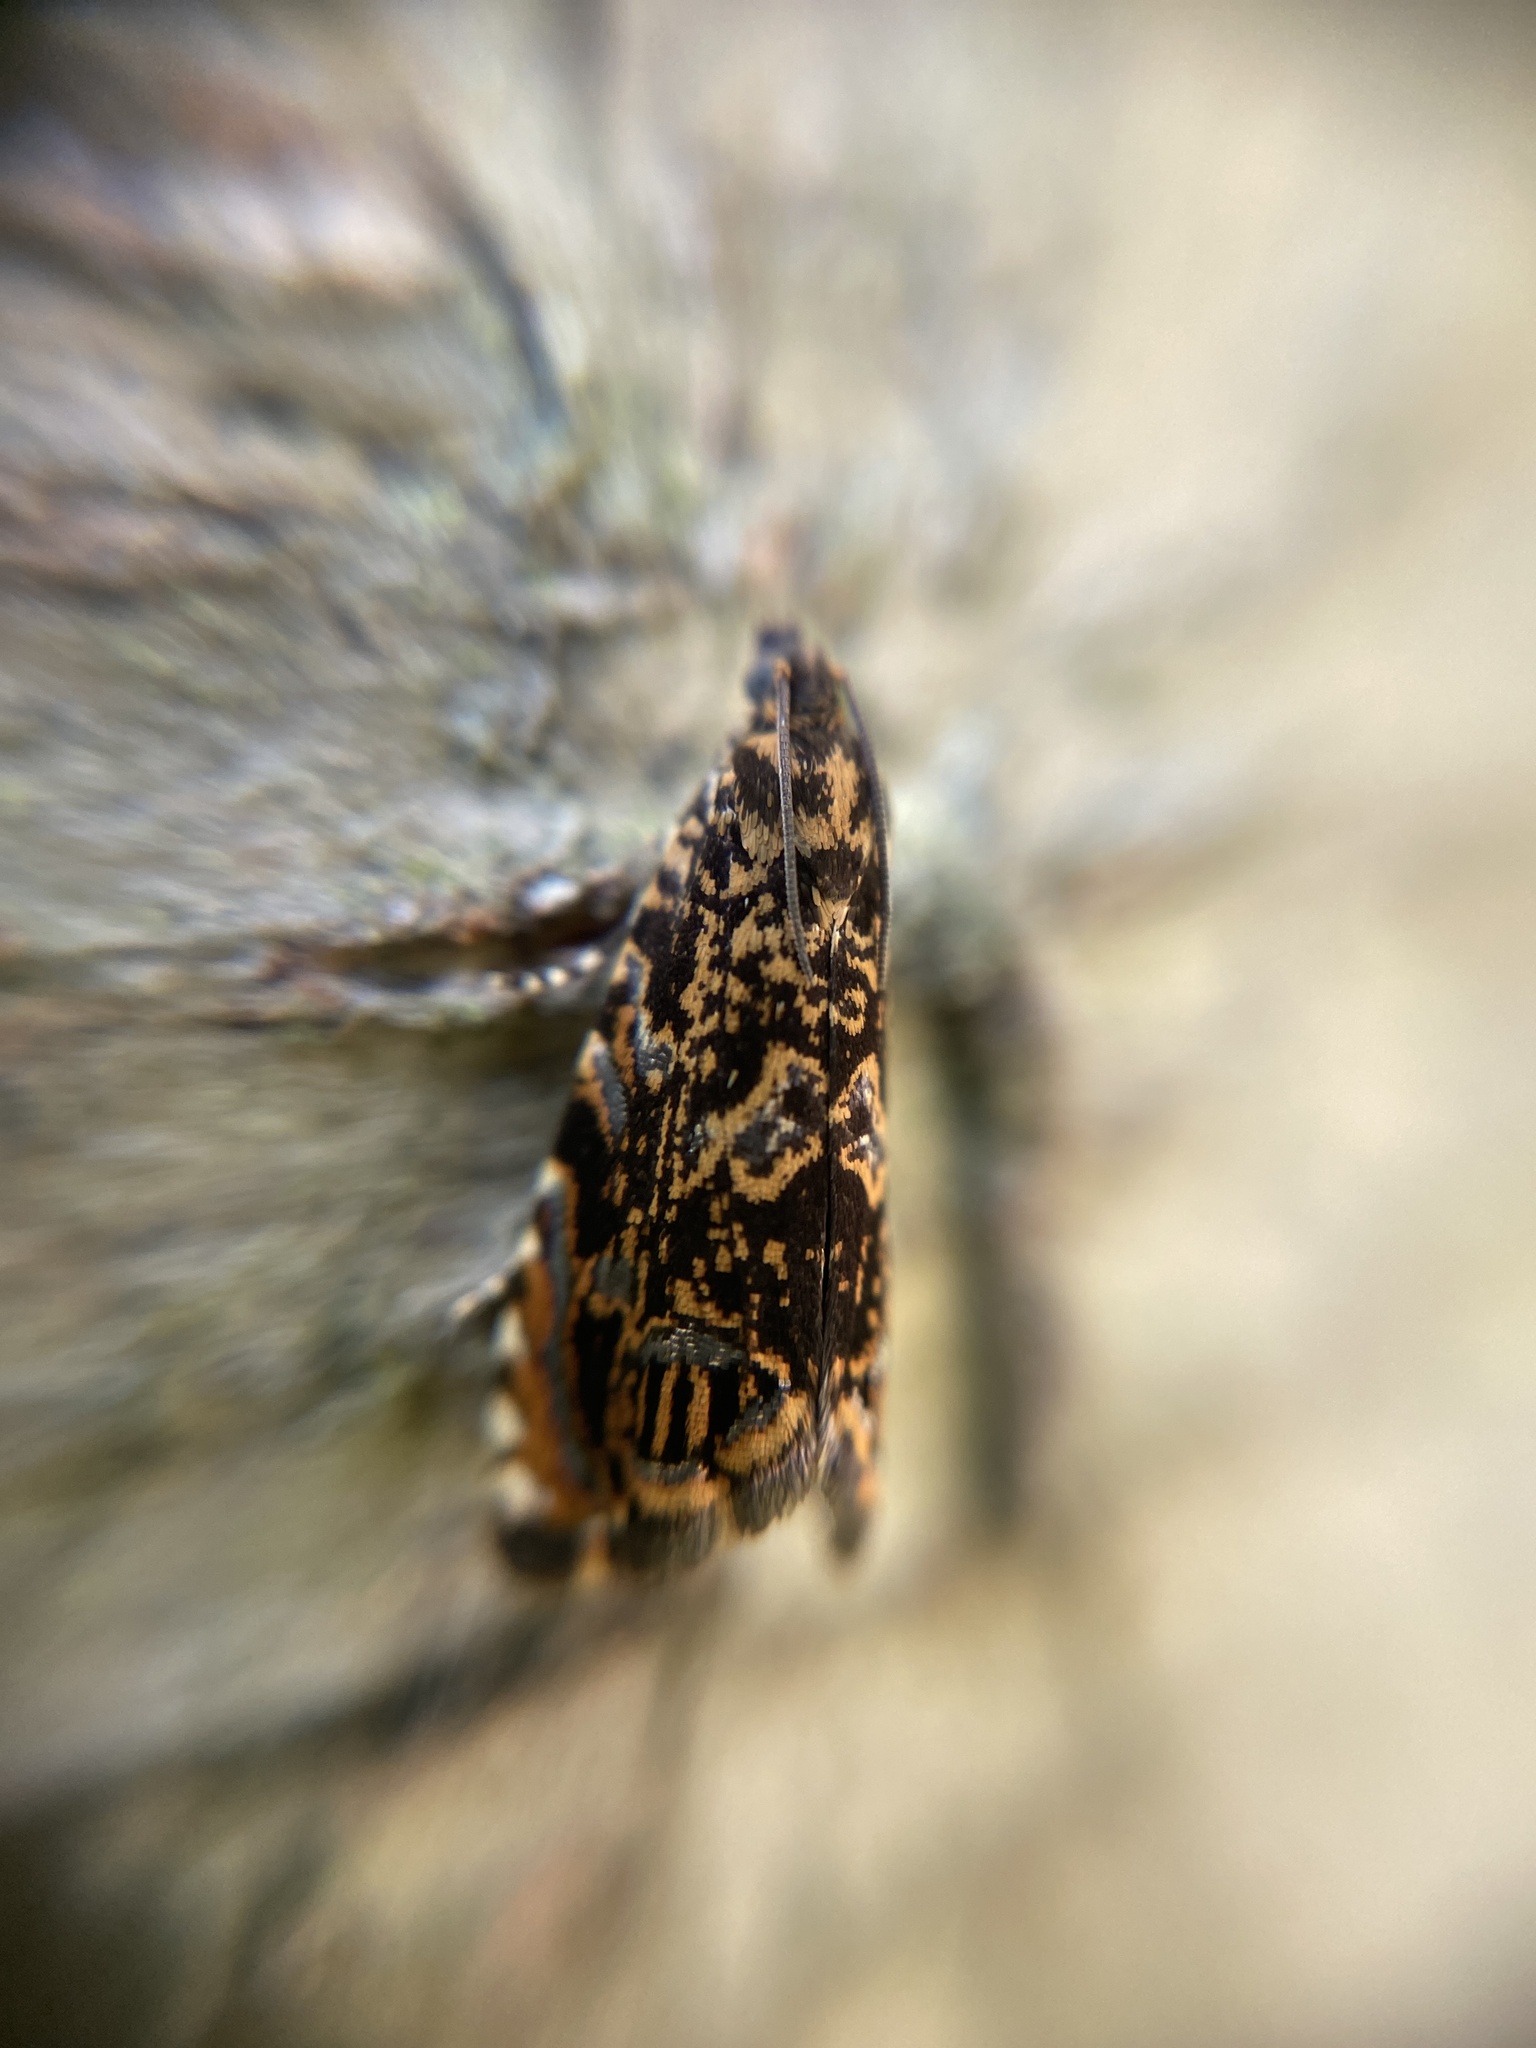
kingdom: Animalia
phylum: Arthropoda
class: Insecta
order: Lepidoptera
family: Tortricidae
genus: Enarmonia
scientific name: Enarmonia formosana
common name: Cherry bark tortrix
